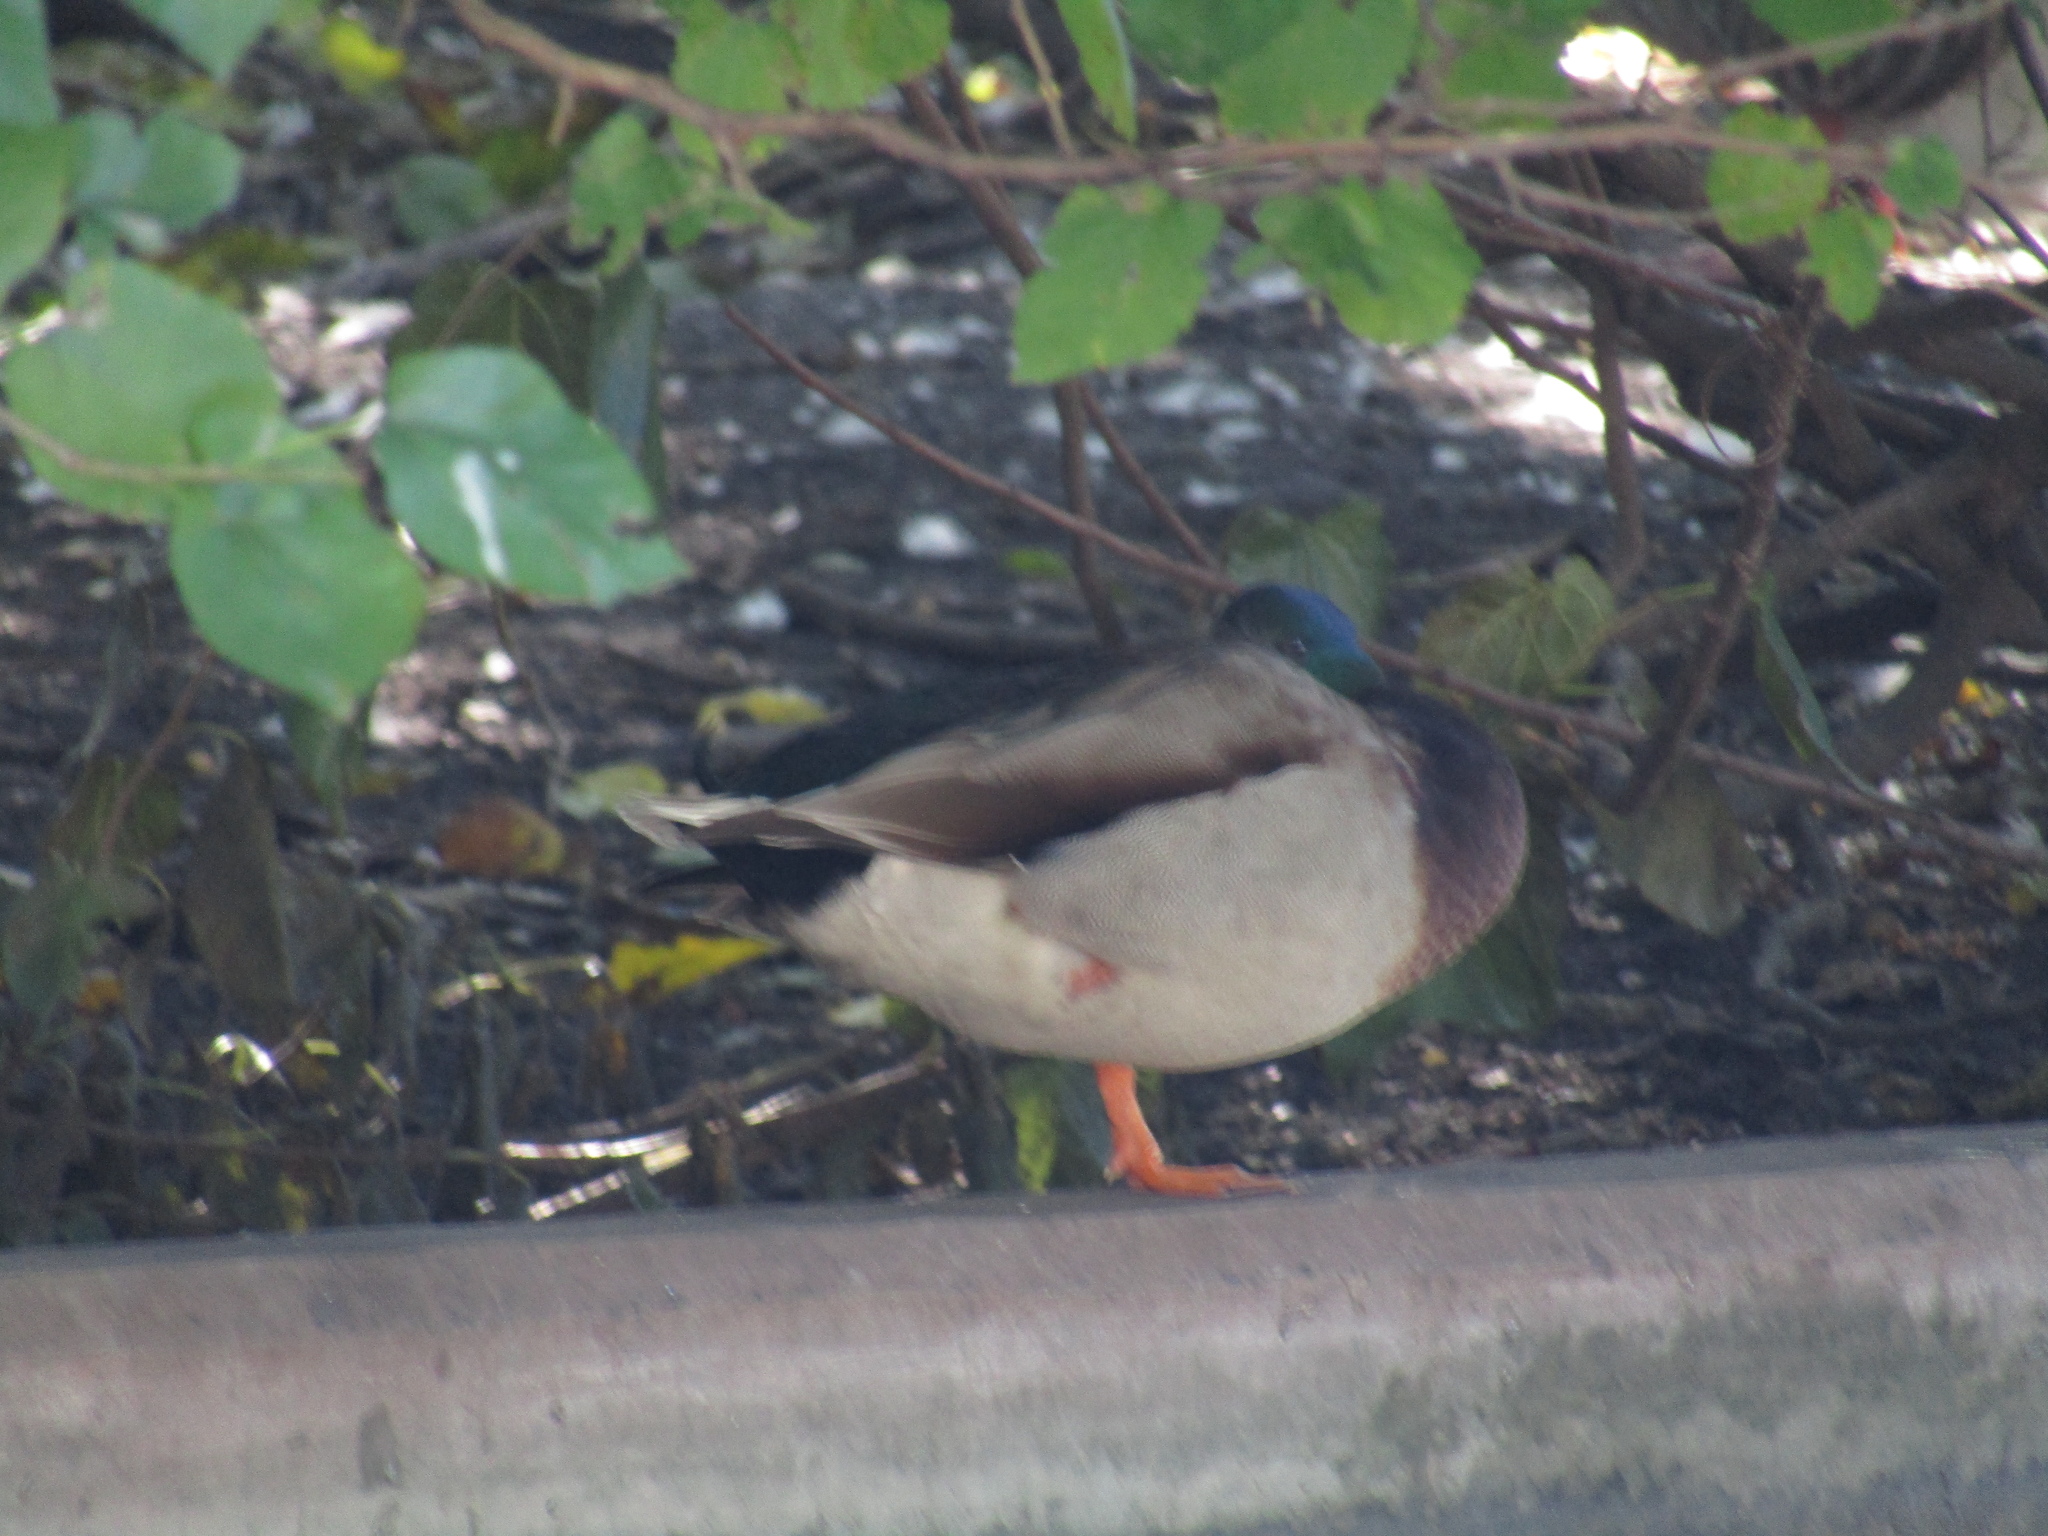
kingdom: Animalia
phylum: Chordata
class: Aves
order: Anseriformes
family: Anatidae
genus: Anas
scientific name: Anas platyrhynchos
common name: Mallard
